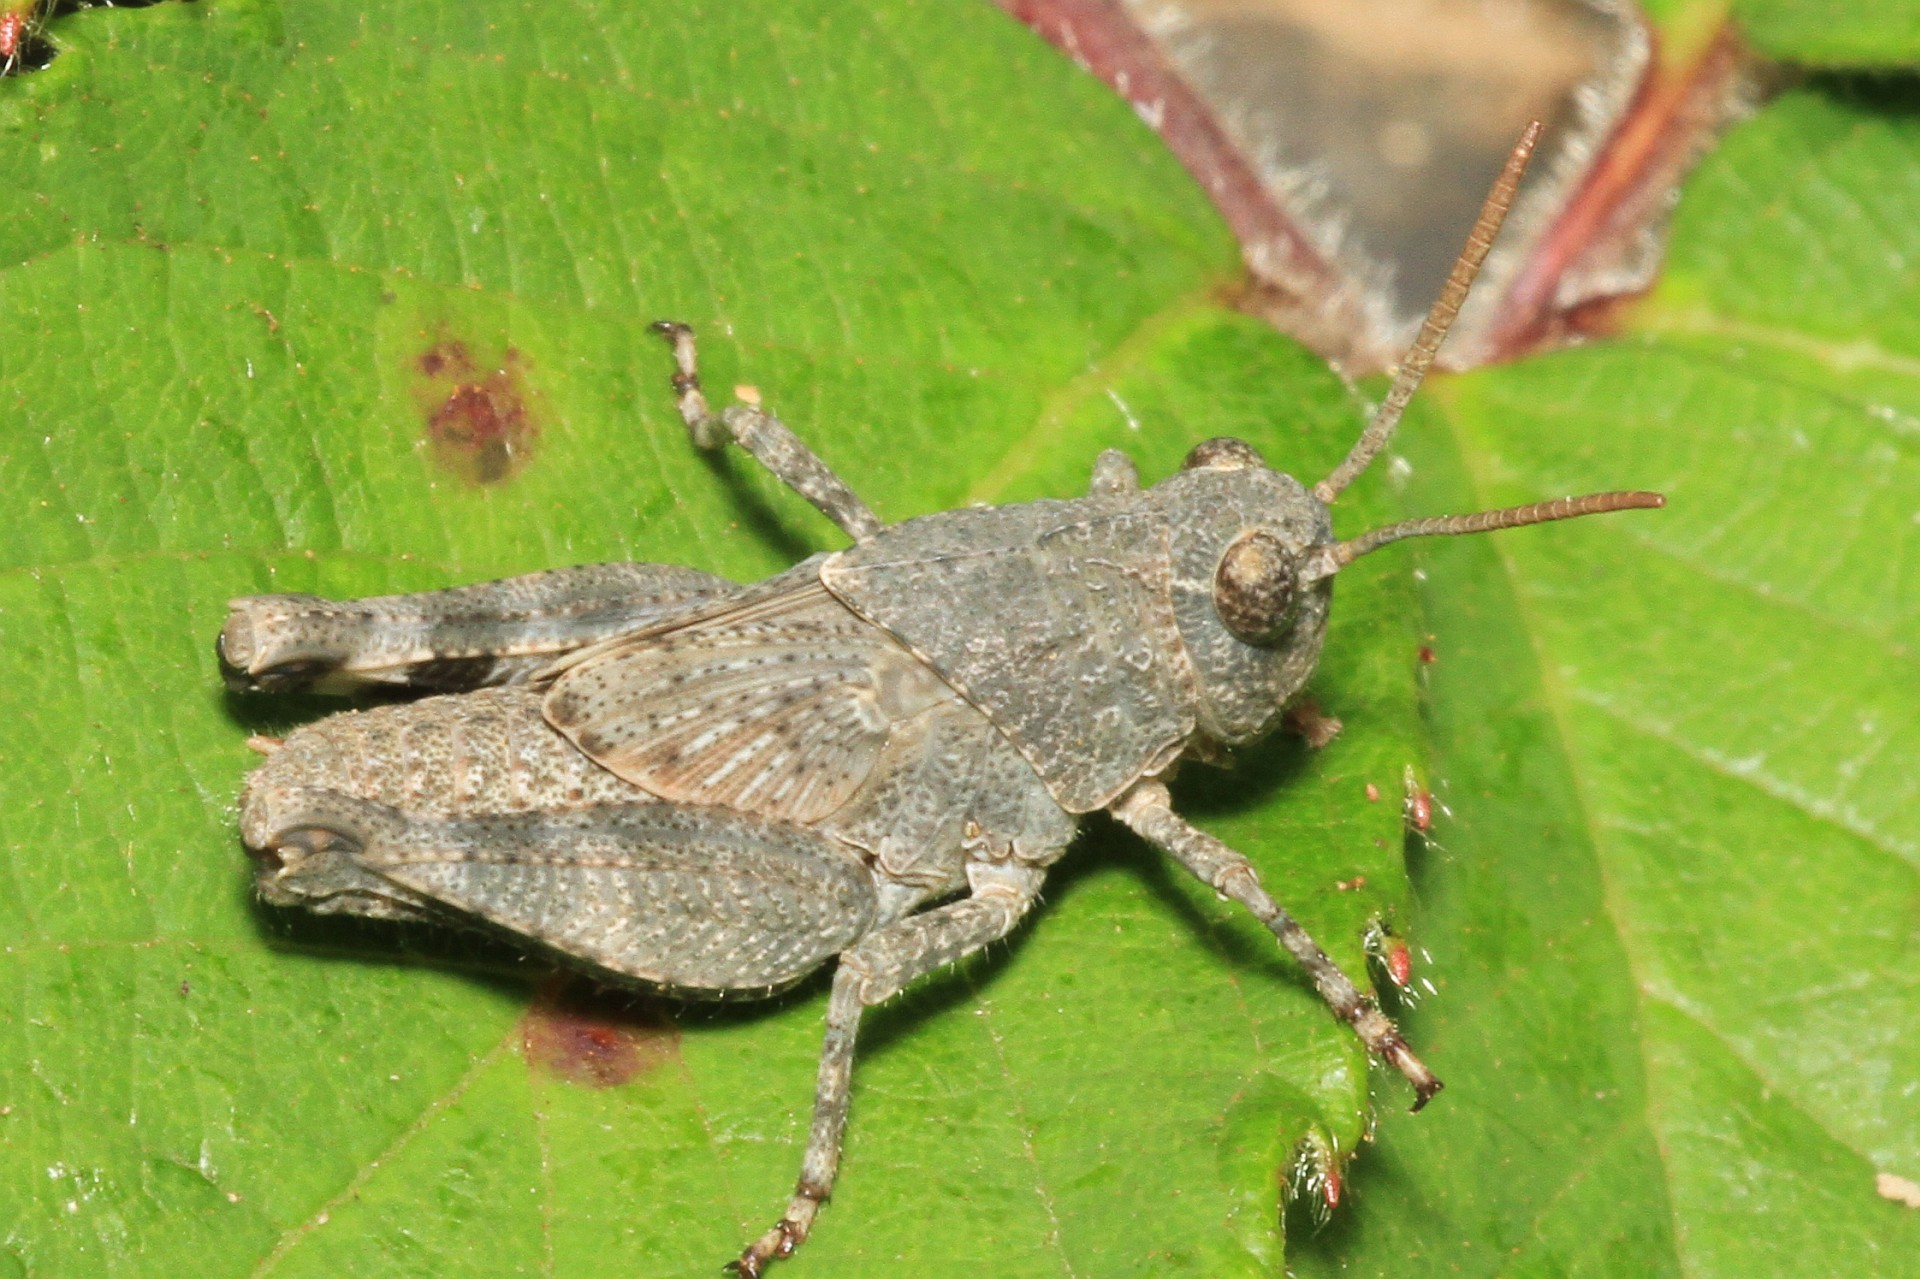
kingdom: Animalia
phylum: Arthropoda
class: Insecta
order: Orthoptera
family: Acrididae
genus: Oedipoda
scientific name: Oedipoda germanica
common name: Red band-winged grasshopper
